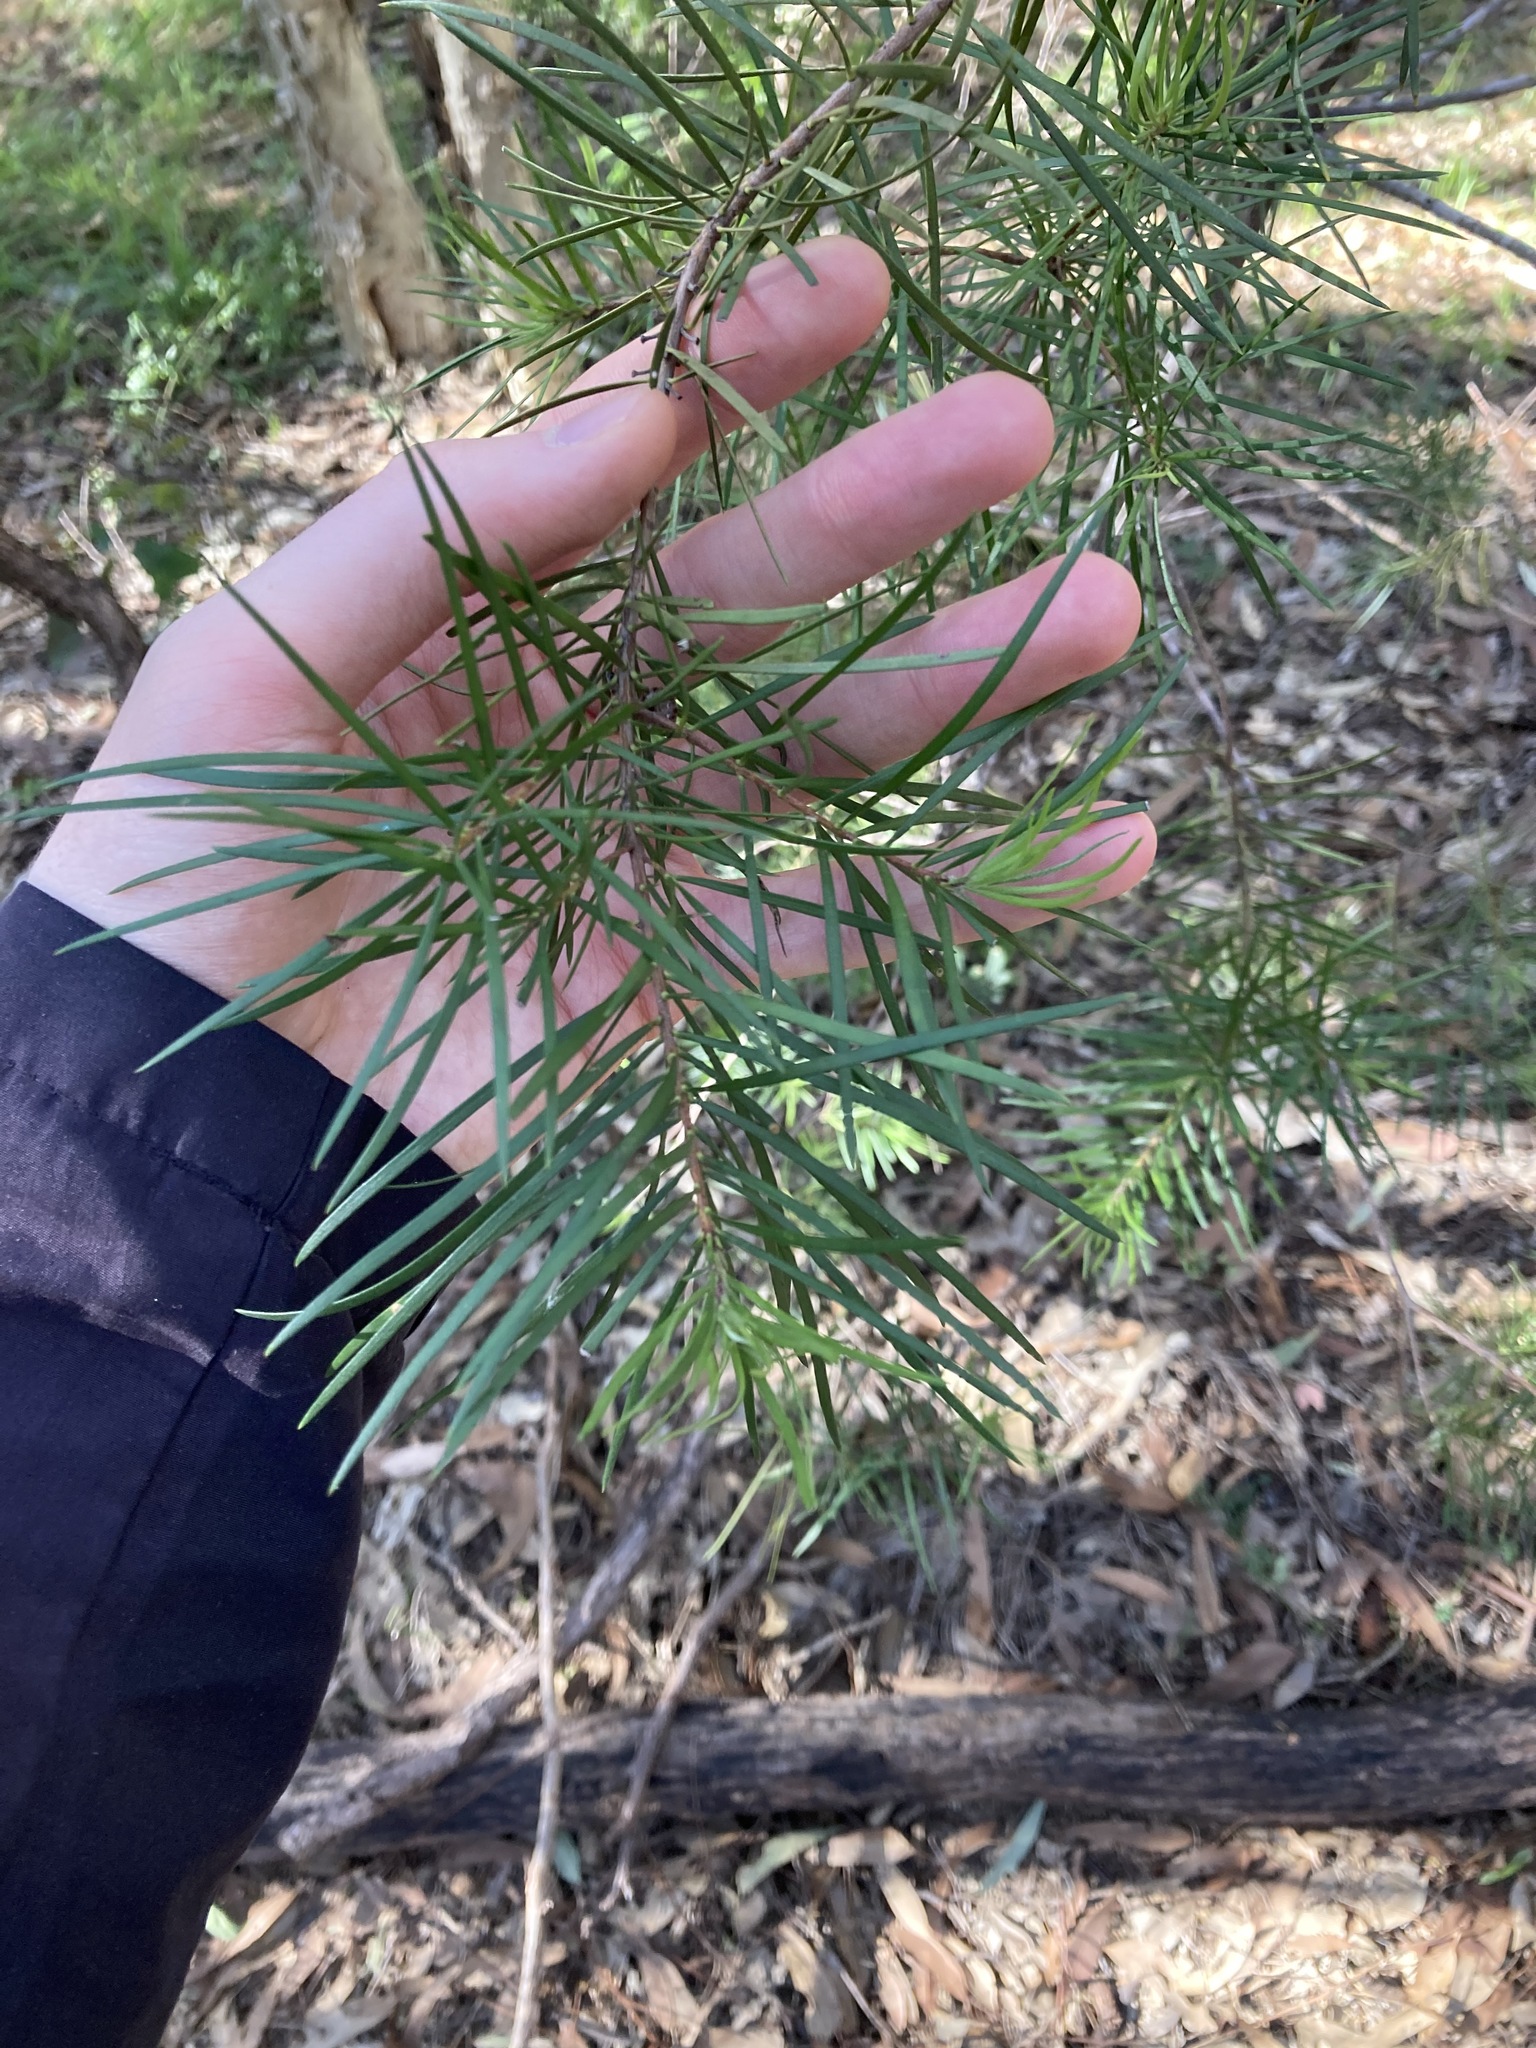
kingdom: Plantae
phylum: Tracheophyta
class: Magnoliopsida
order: Proteales
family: Proteaceae
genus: Persoonia
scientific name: Persoonia linearis
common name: Narrow-leaf geebung
